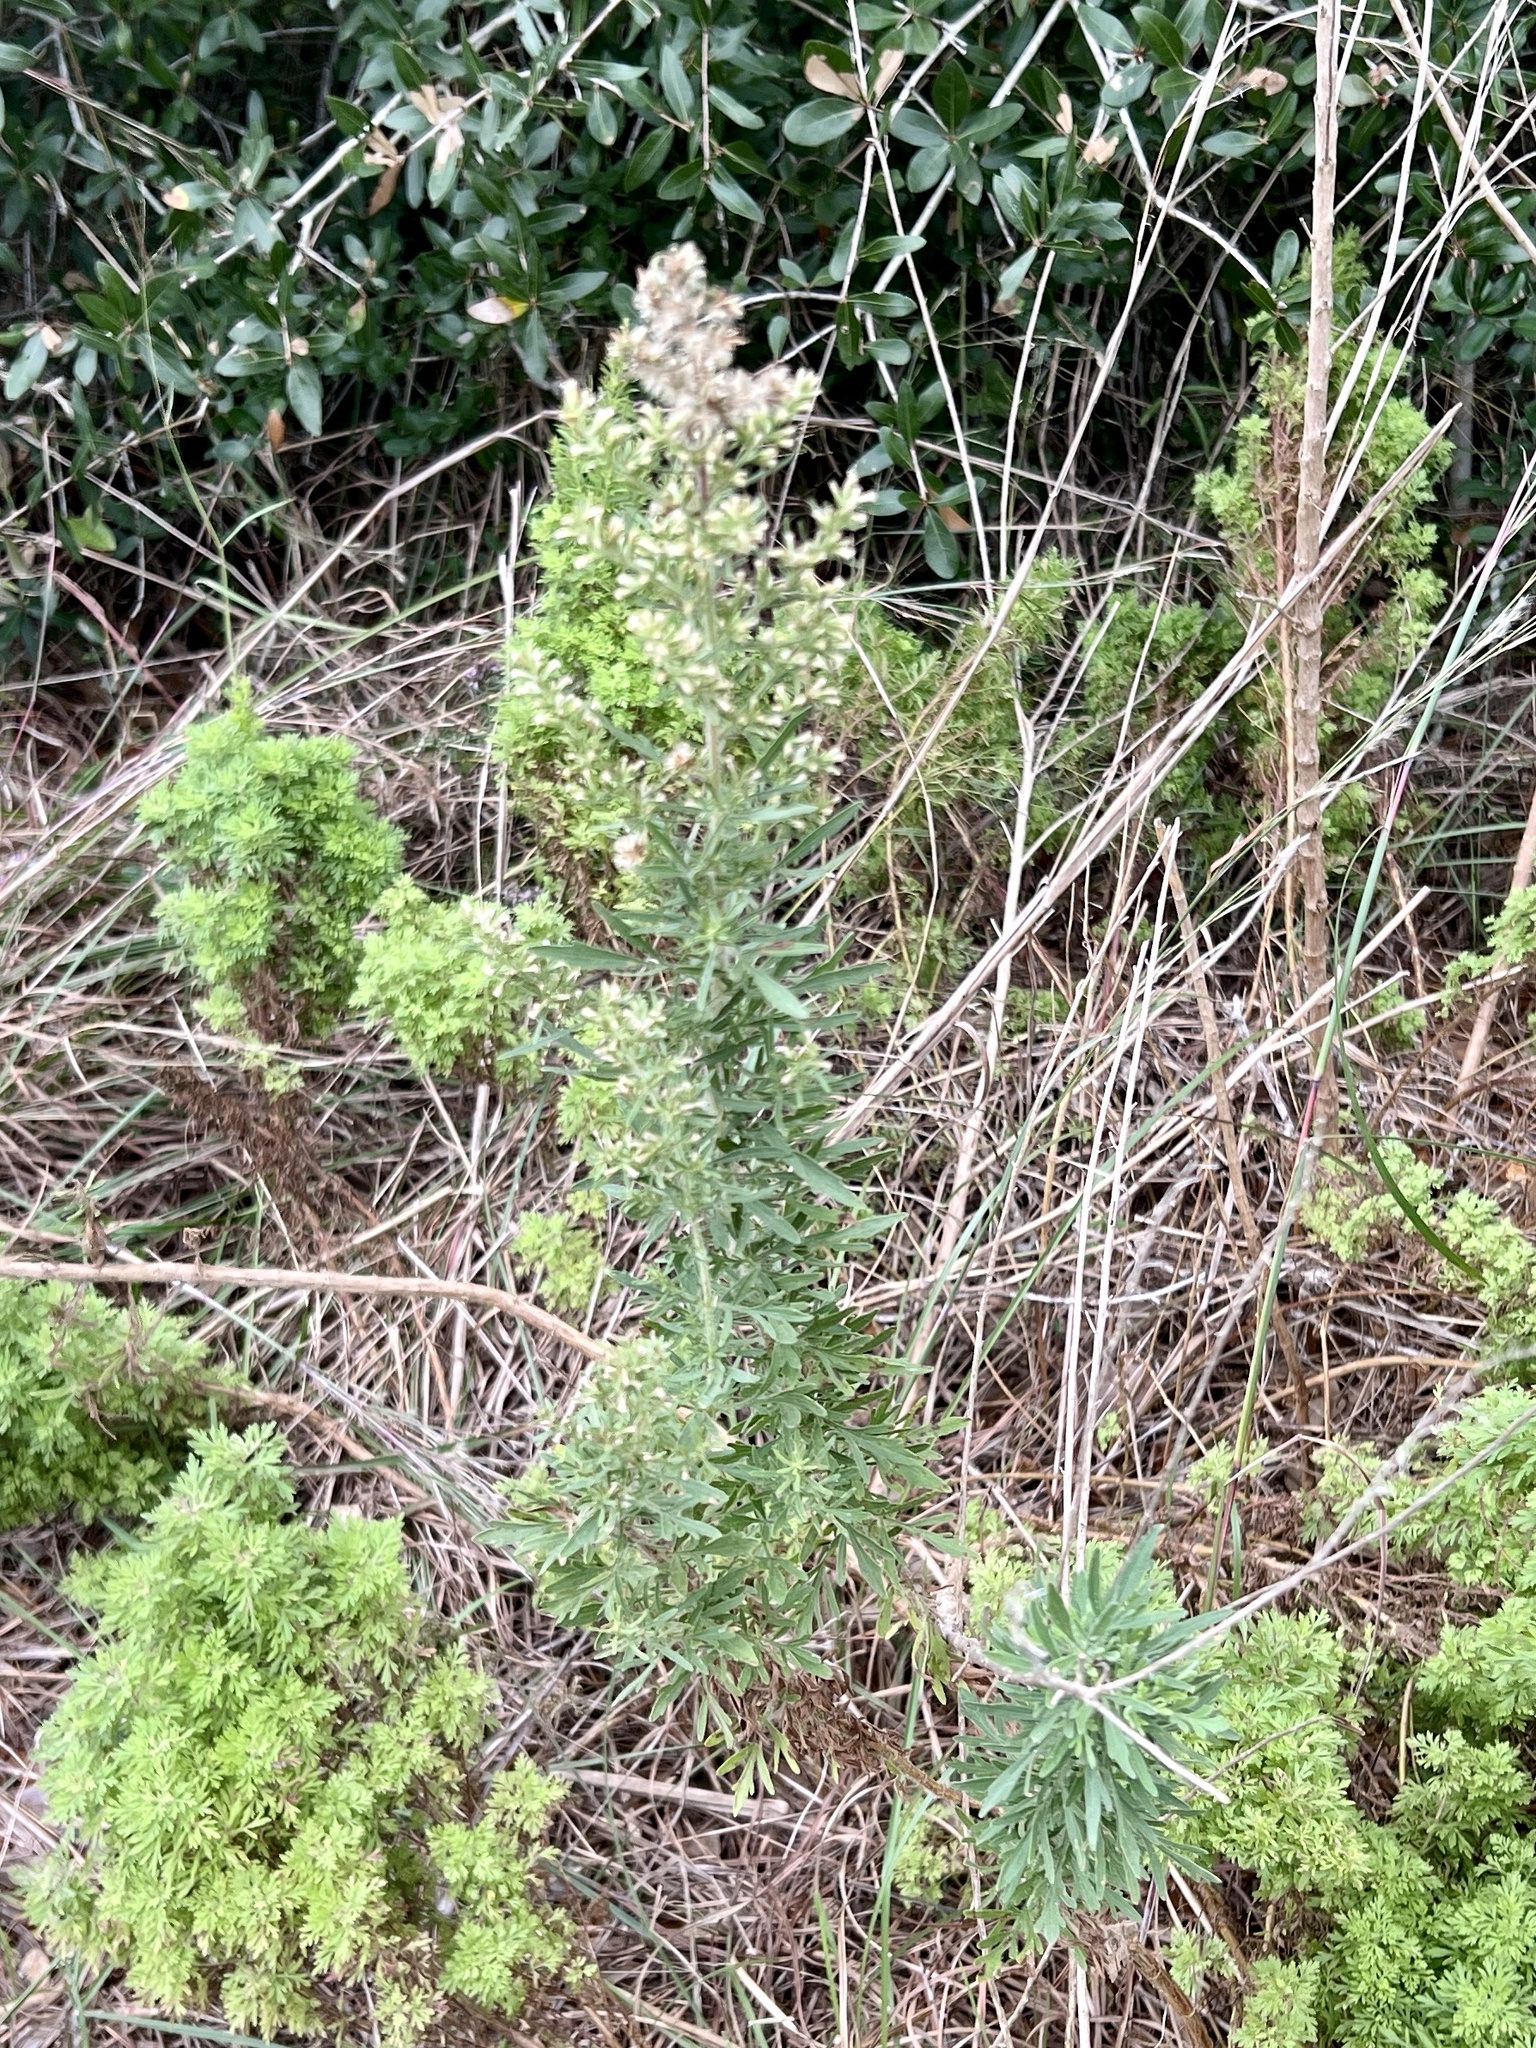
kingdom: Plantae
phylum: Tracheophyta
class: Magnoliopsida
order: Asterales
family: Asteraceae
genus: Baccharis
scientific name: Baccharis neglecta
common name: Roosevelt-weed
